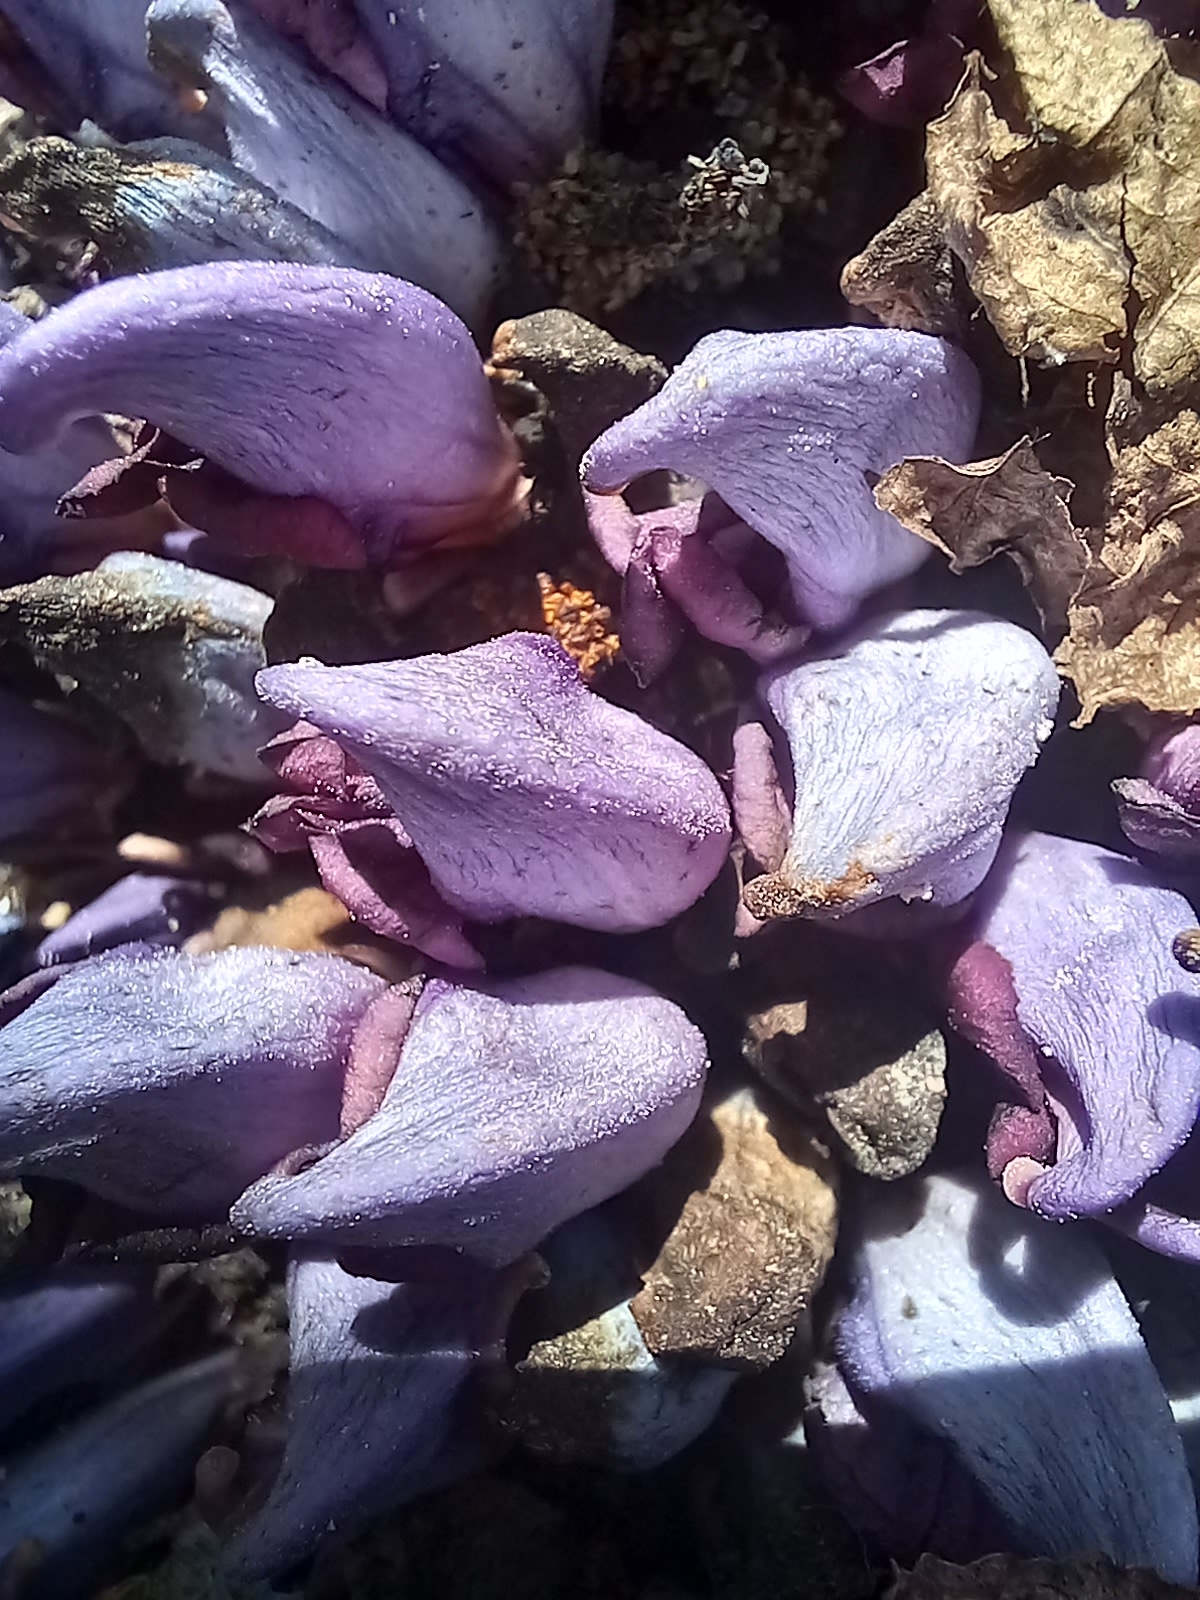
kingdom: Plantae
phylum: Tracheophyta
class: Magnoliopsida
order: Lamiales
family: Orobanchaceae
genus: Lathraea
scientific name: Lathraea clandestina
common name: Purple toothwort
